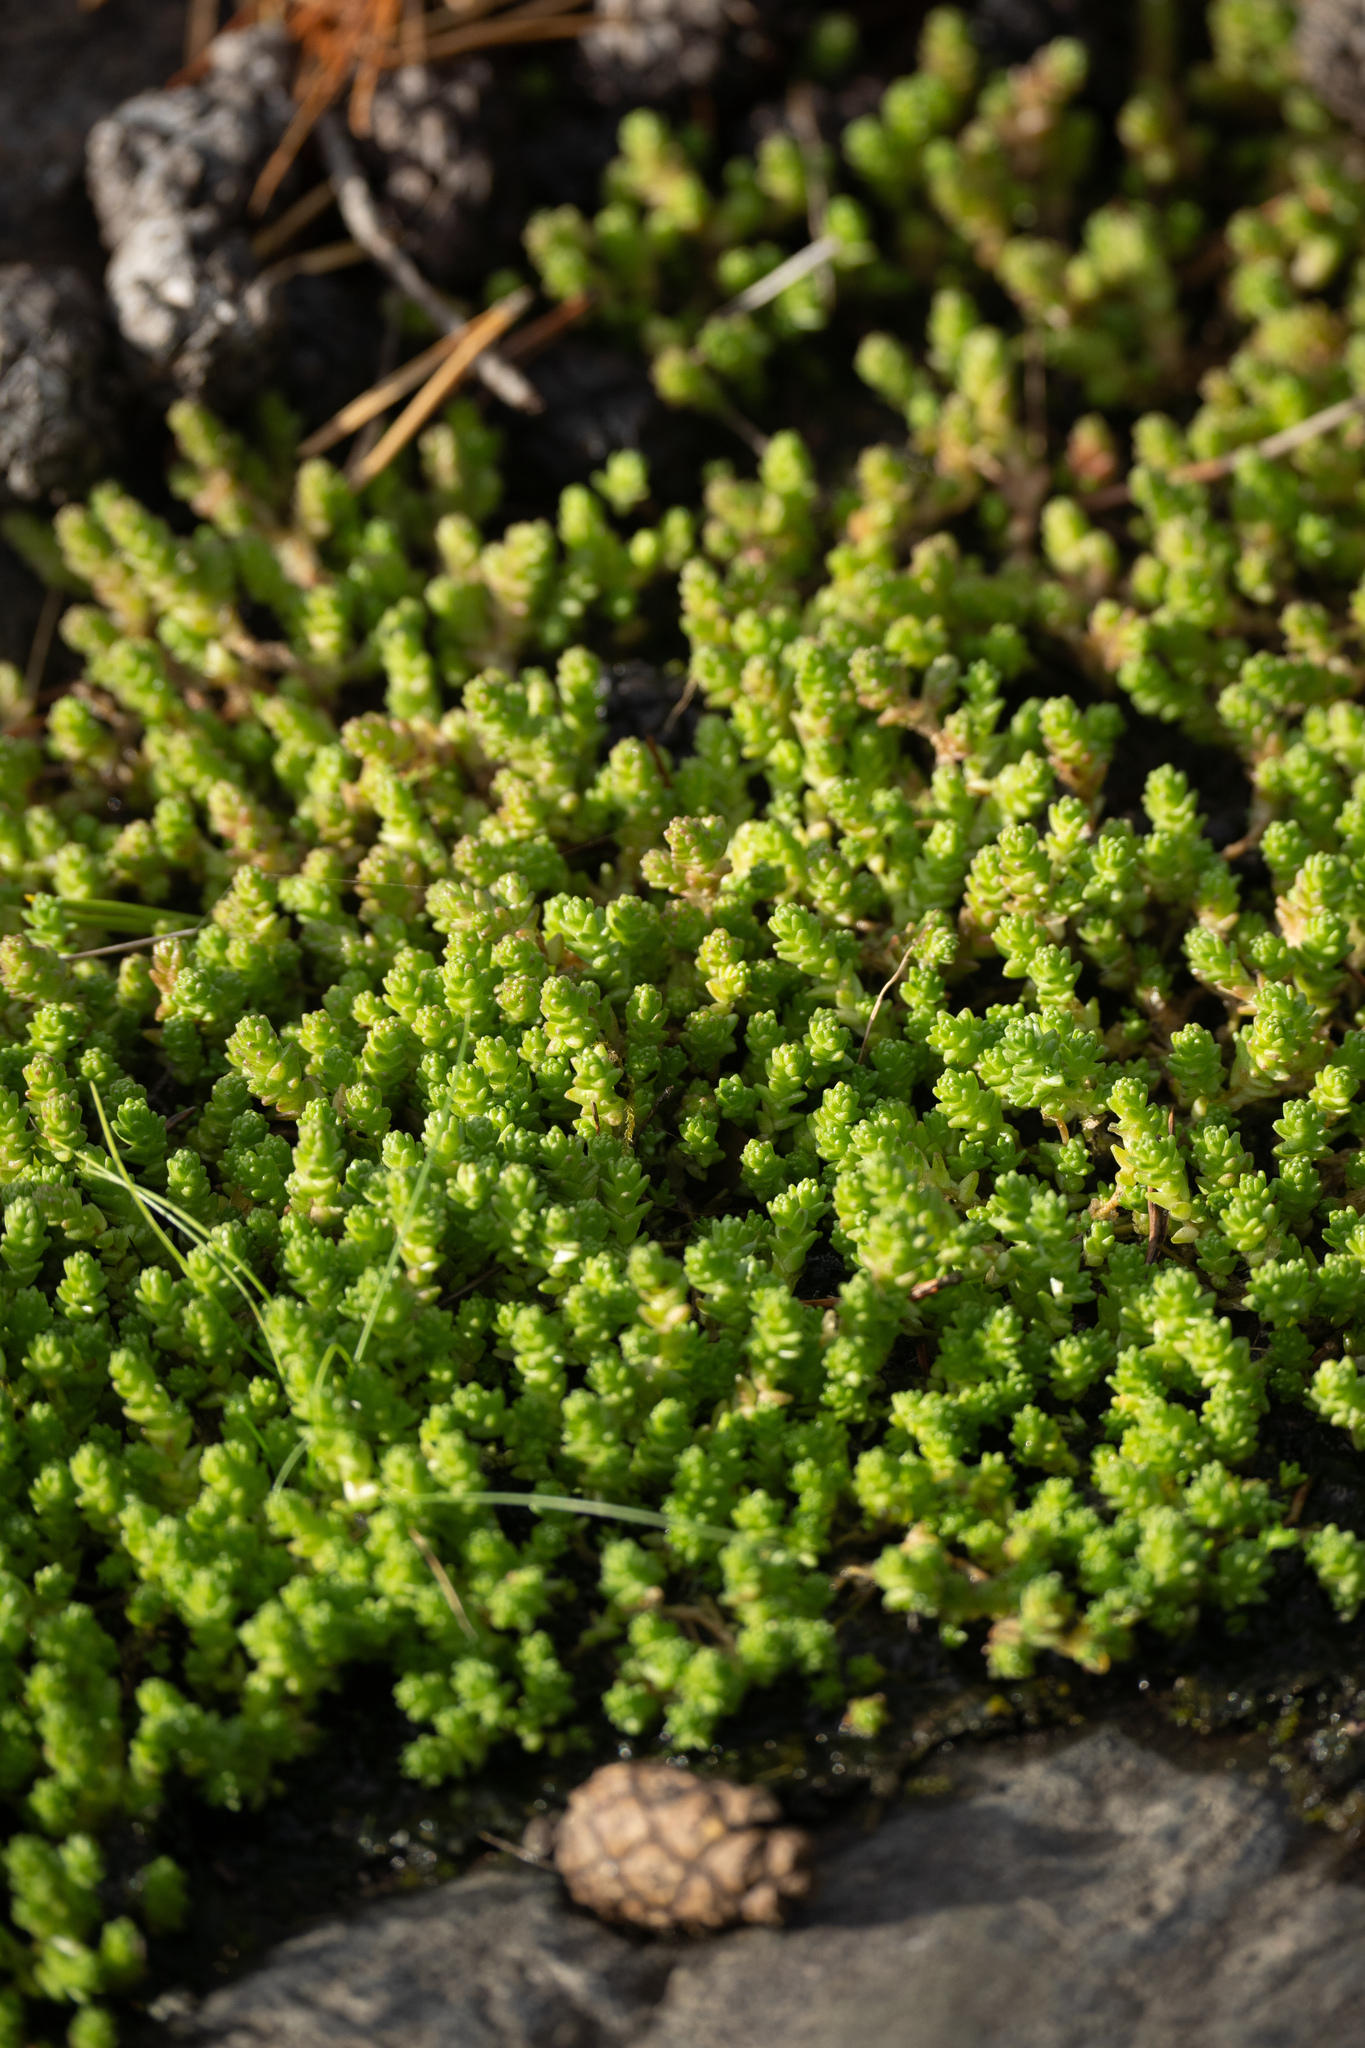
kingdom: Plantae
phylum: Tracheophyta
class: Magnoliopsida
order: Saxifragales
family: Crassulaceae
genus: Sedum
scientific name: Sedum acre
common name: Biting stonecrop
